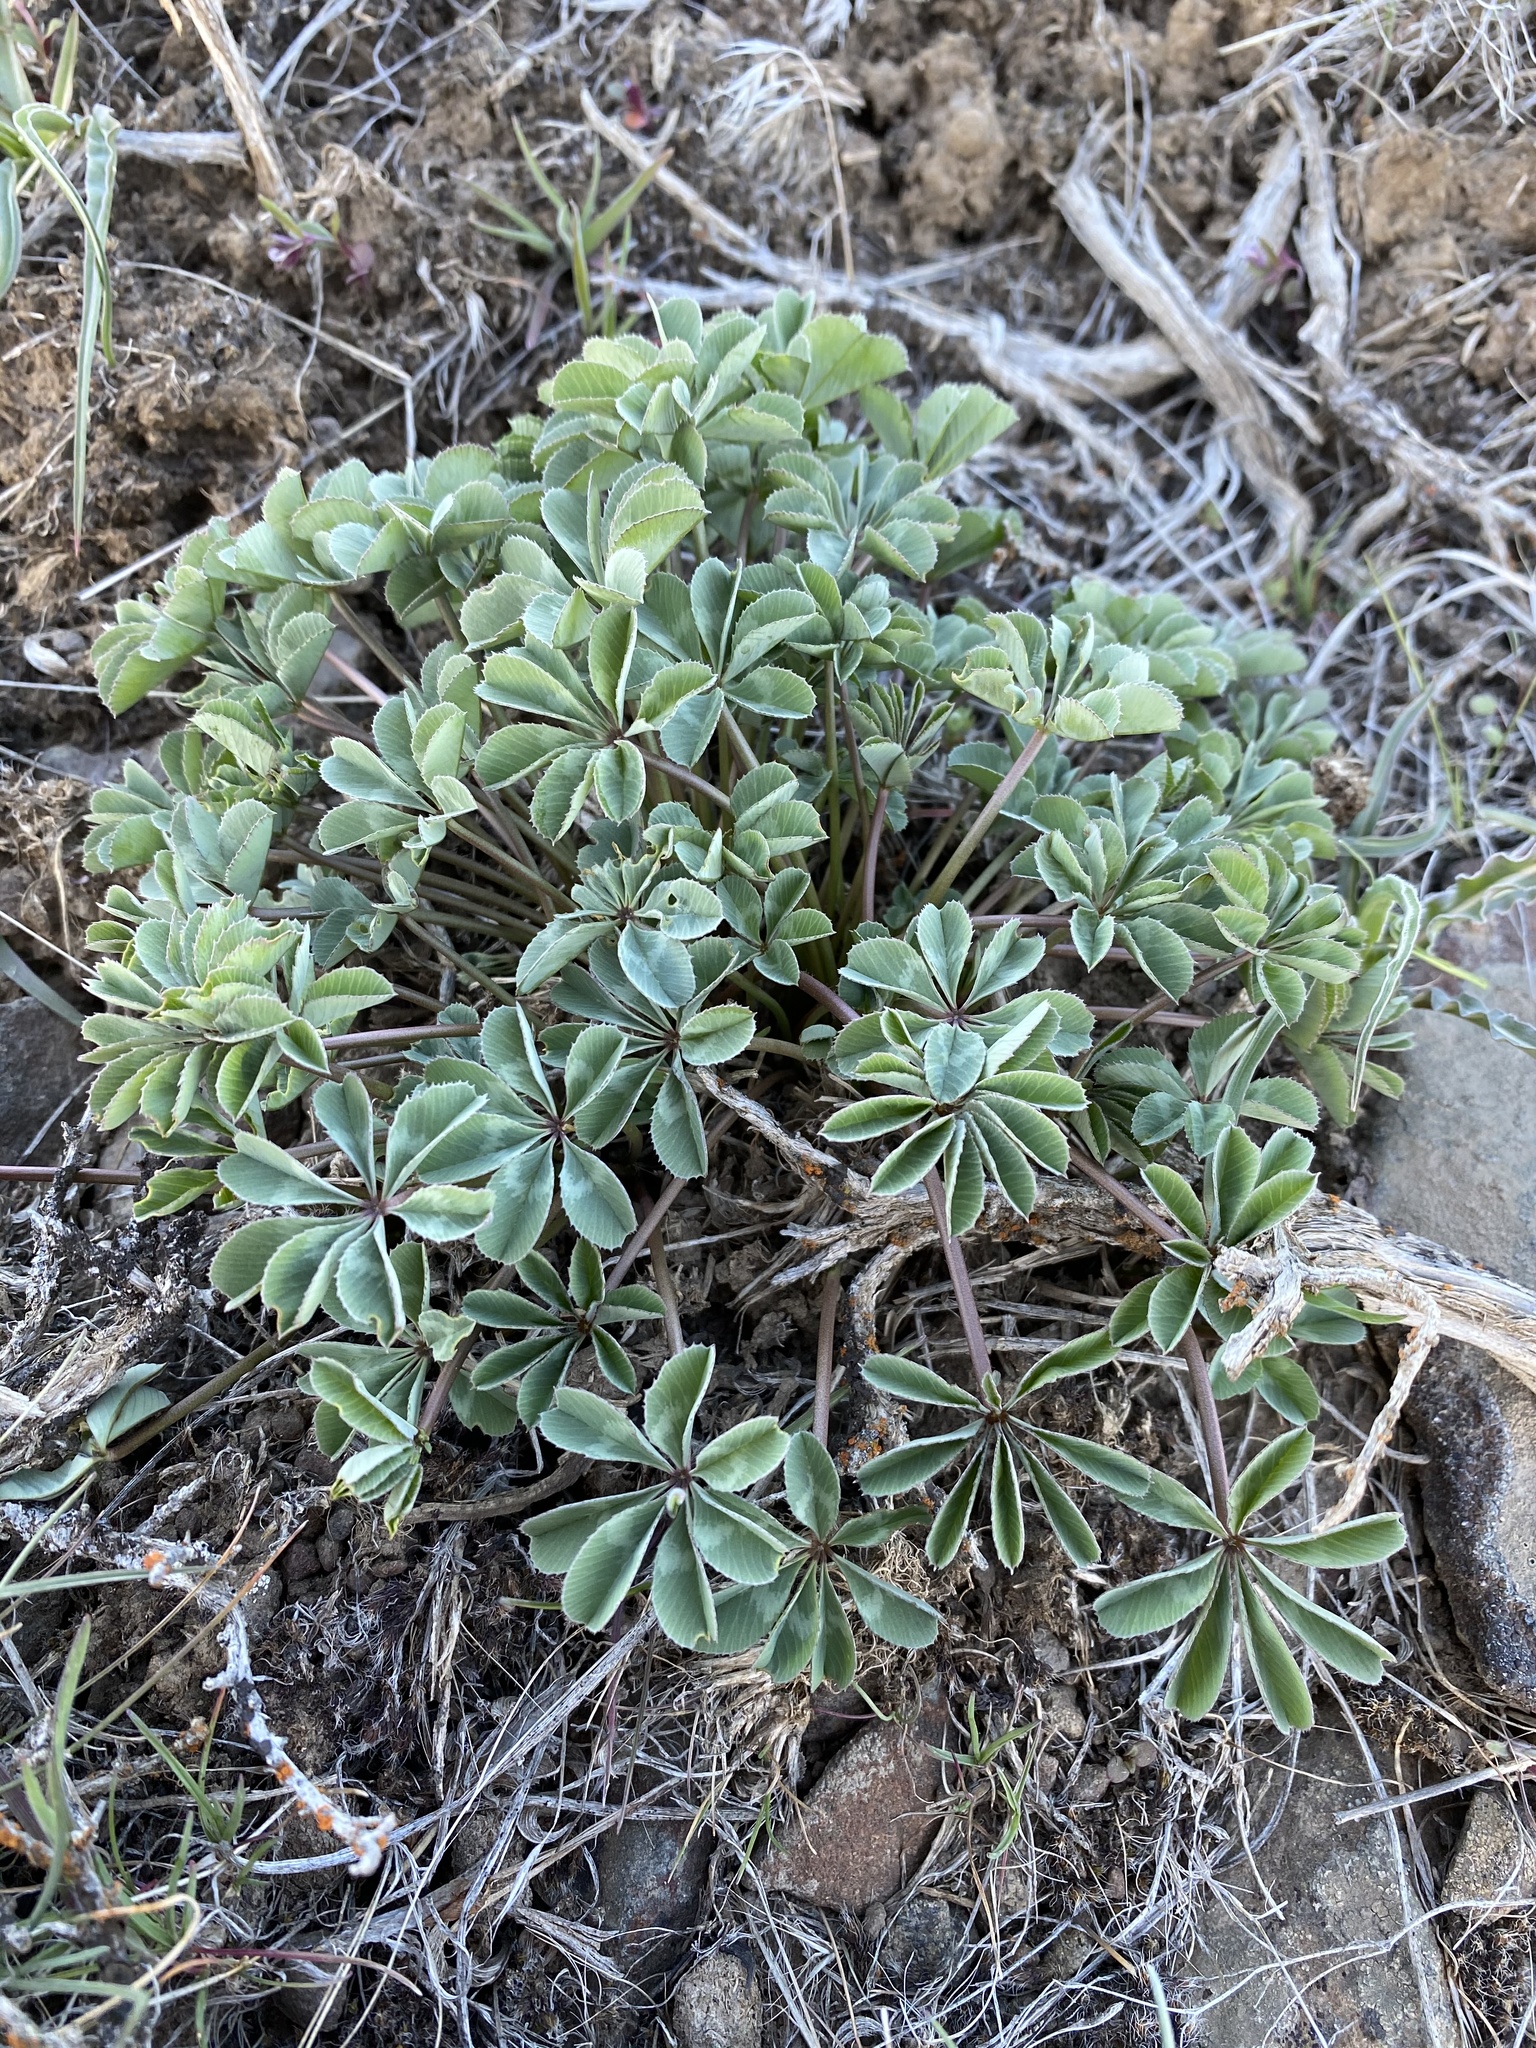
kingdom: Plantae
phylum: Tracheophyta
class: Magnoliopsida
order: Fabales
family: Fabaceae
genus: Trifolium
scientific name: Trifolium macrocephalum
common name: Large-head clover
